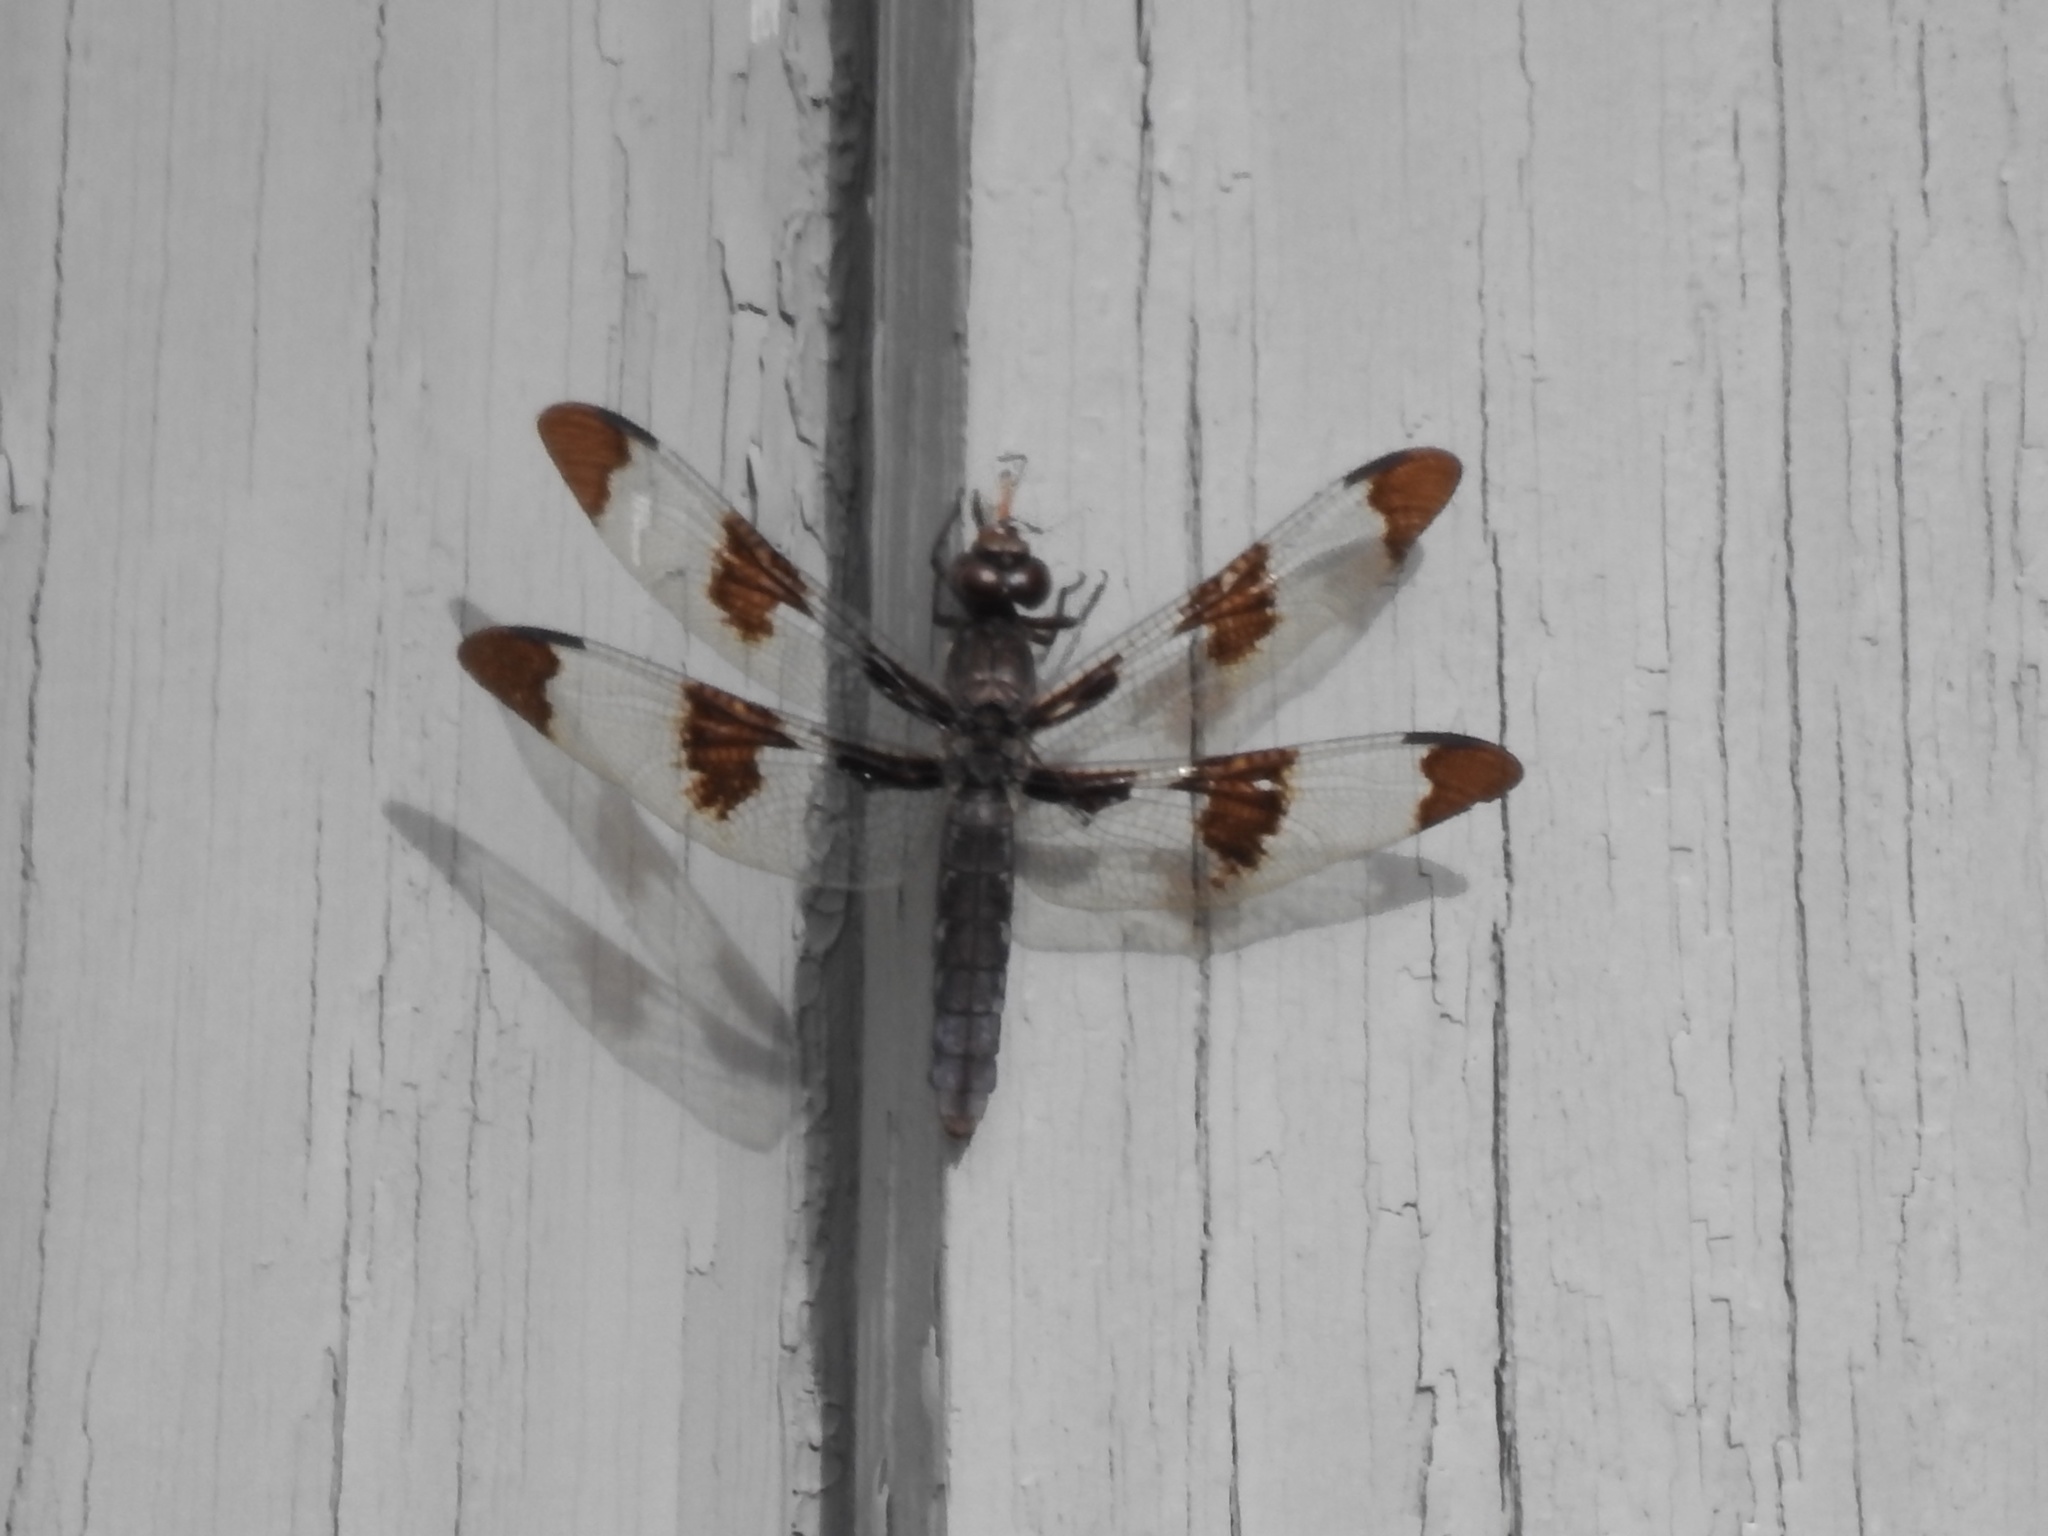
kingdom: Animalia
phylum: Arthropoda
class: Insecta
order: Odonata
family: Libellulidae
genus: Plathemis
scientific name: Plathemis lydia
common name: Common whitetail
